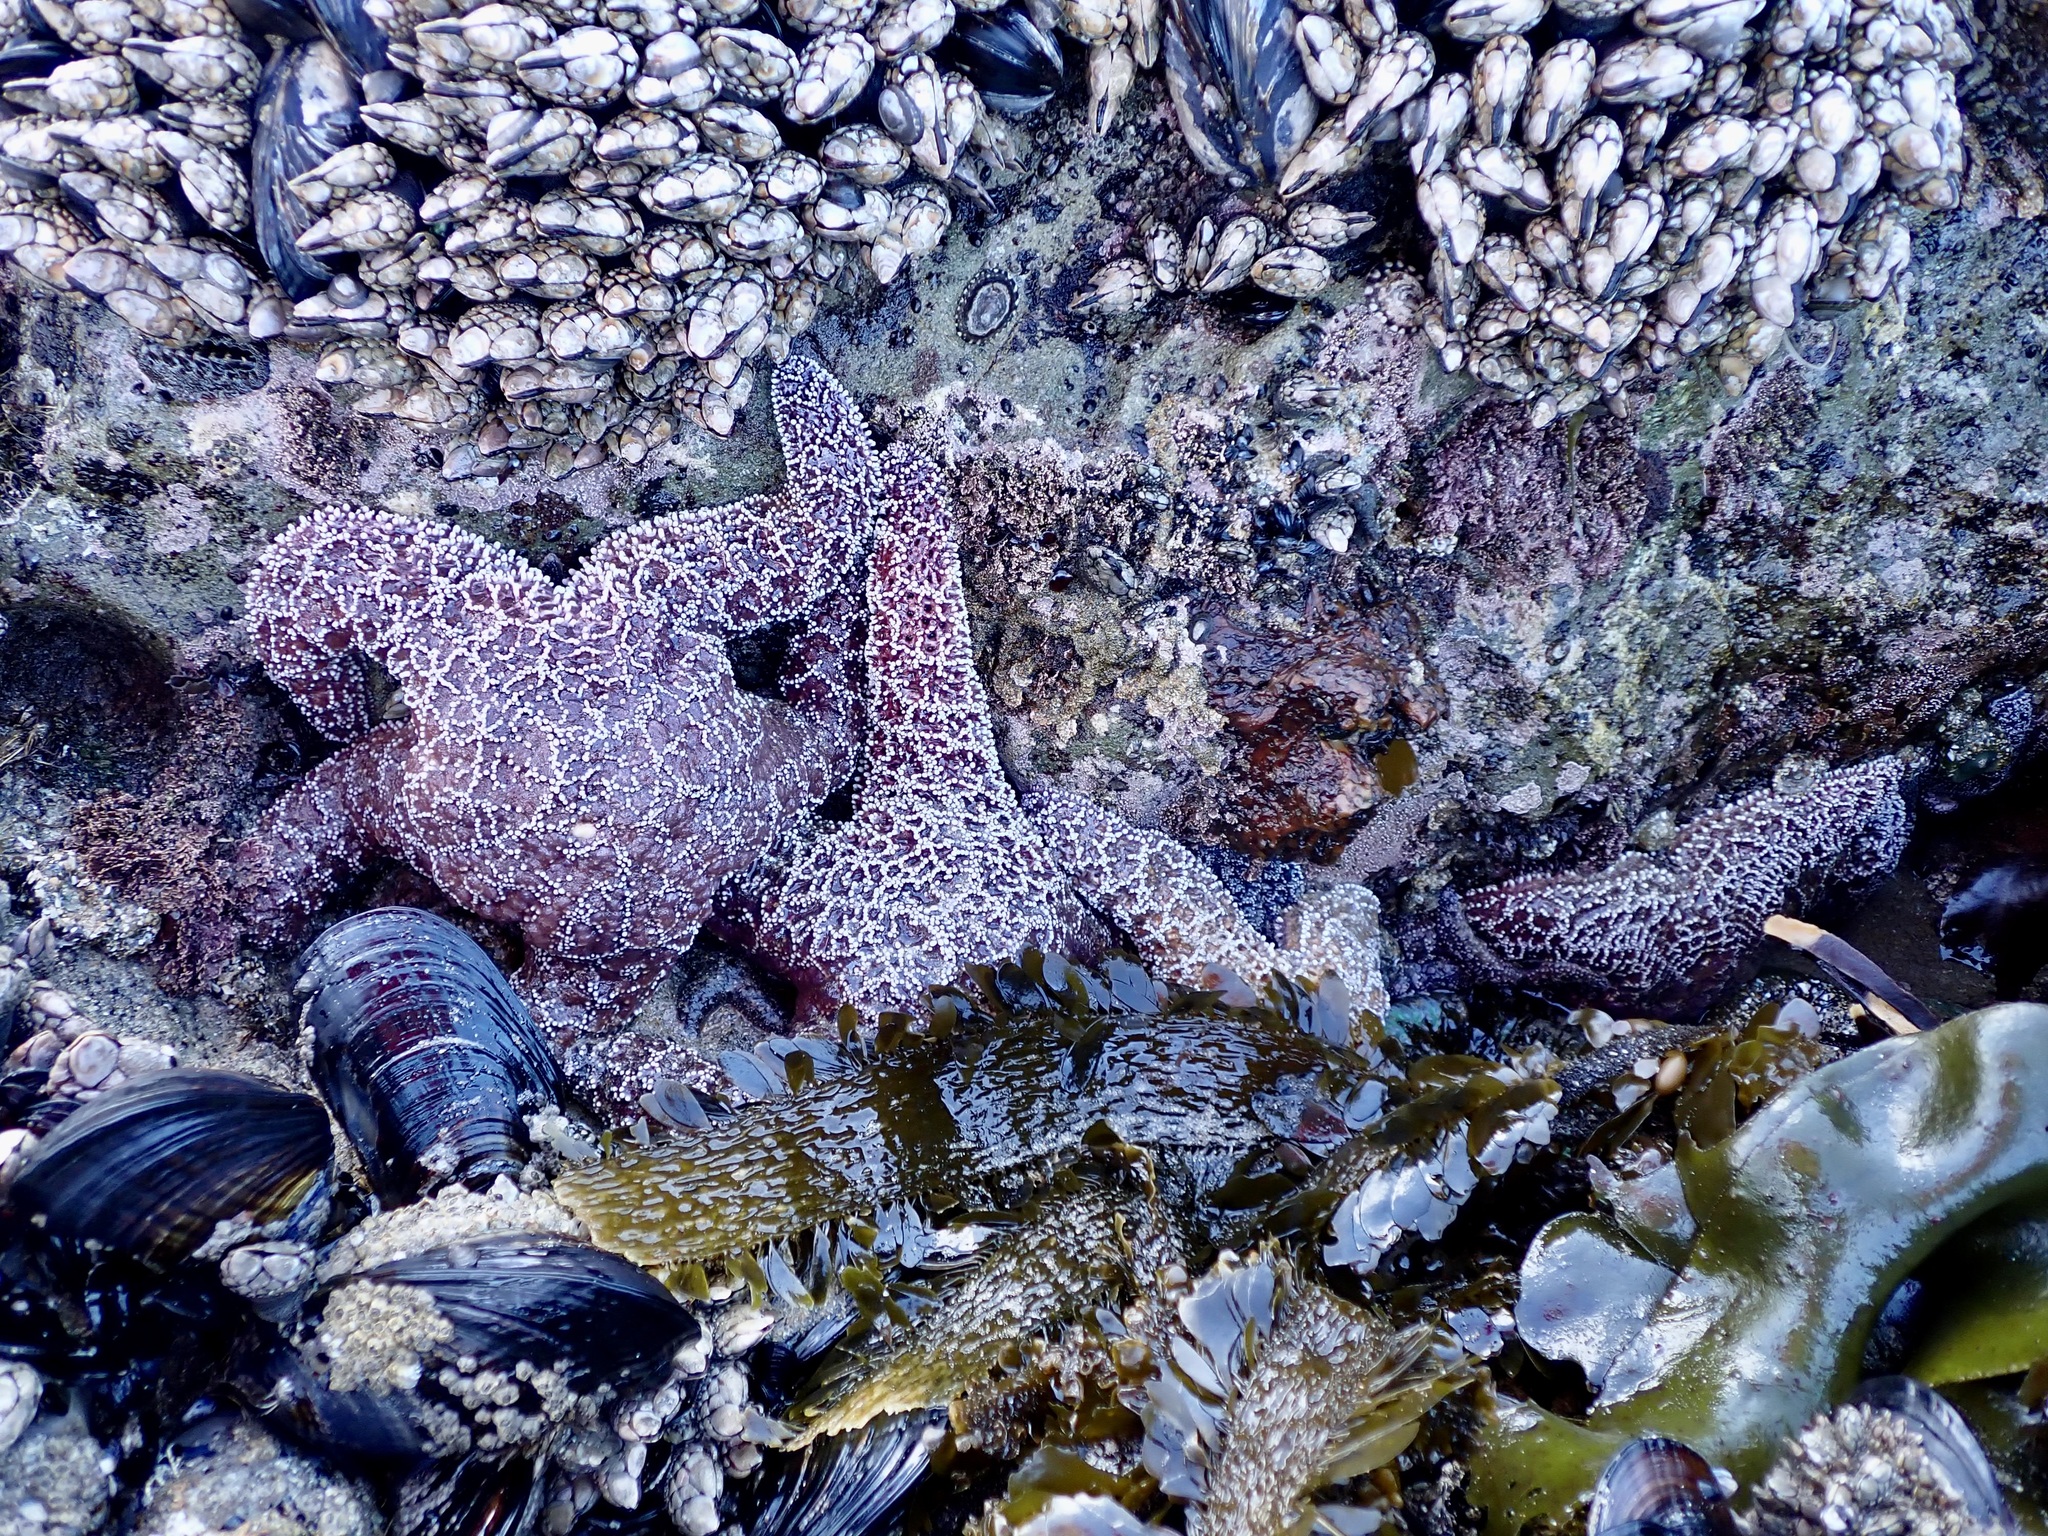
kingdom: Animalia
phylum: Echinodermata
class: Asteroidea
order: Forcipulatida
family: Asteriidae
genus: Pisaster
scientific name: Pisaster ochraceus
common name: Ochre stars
